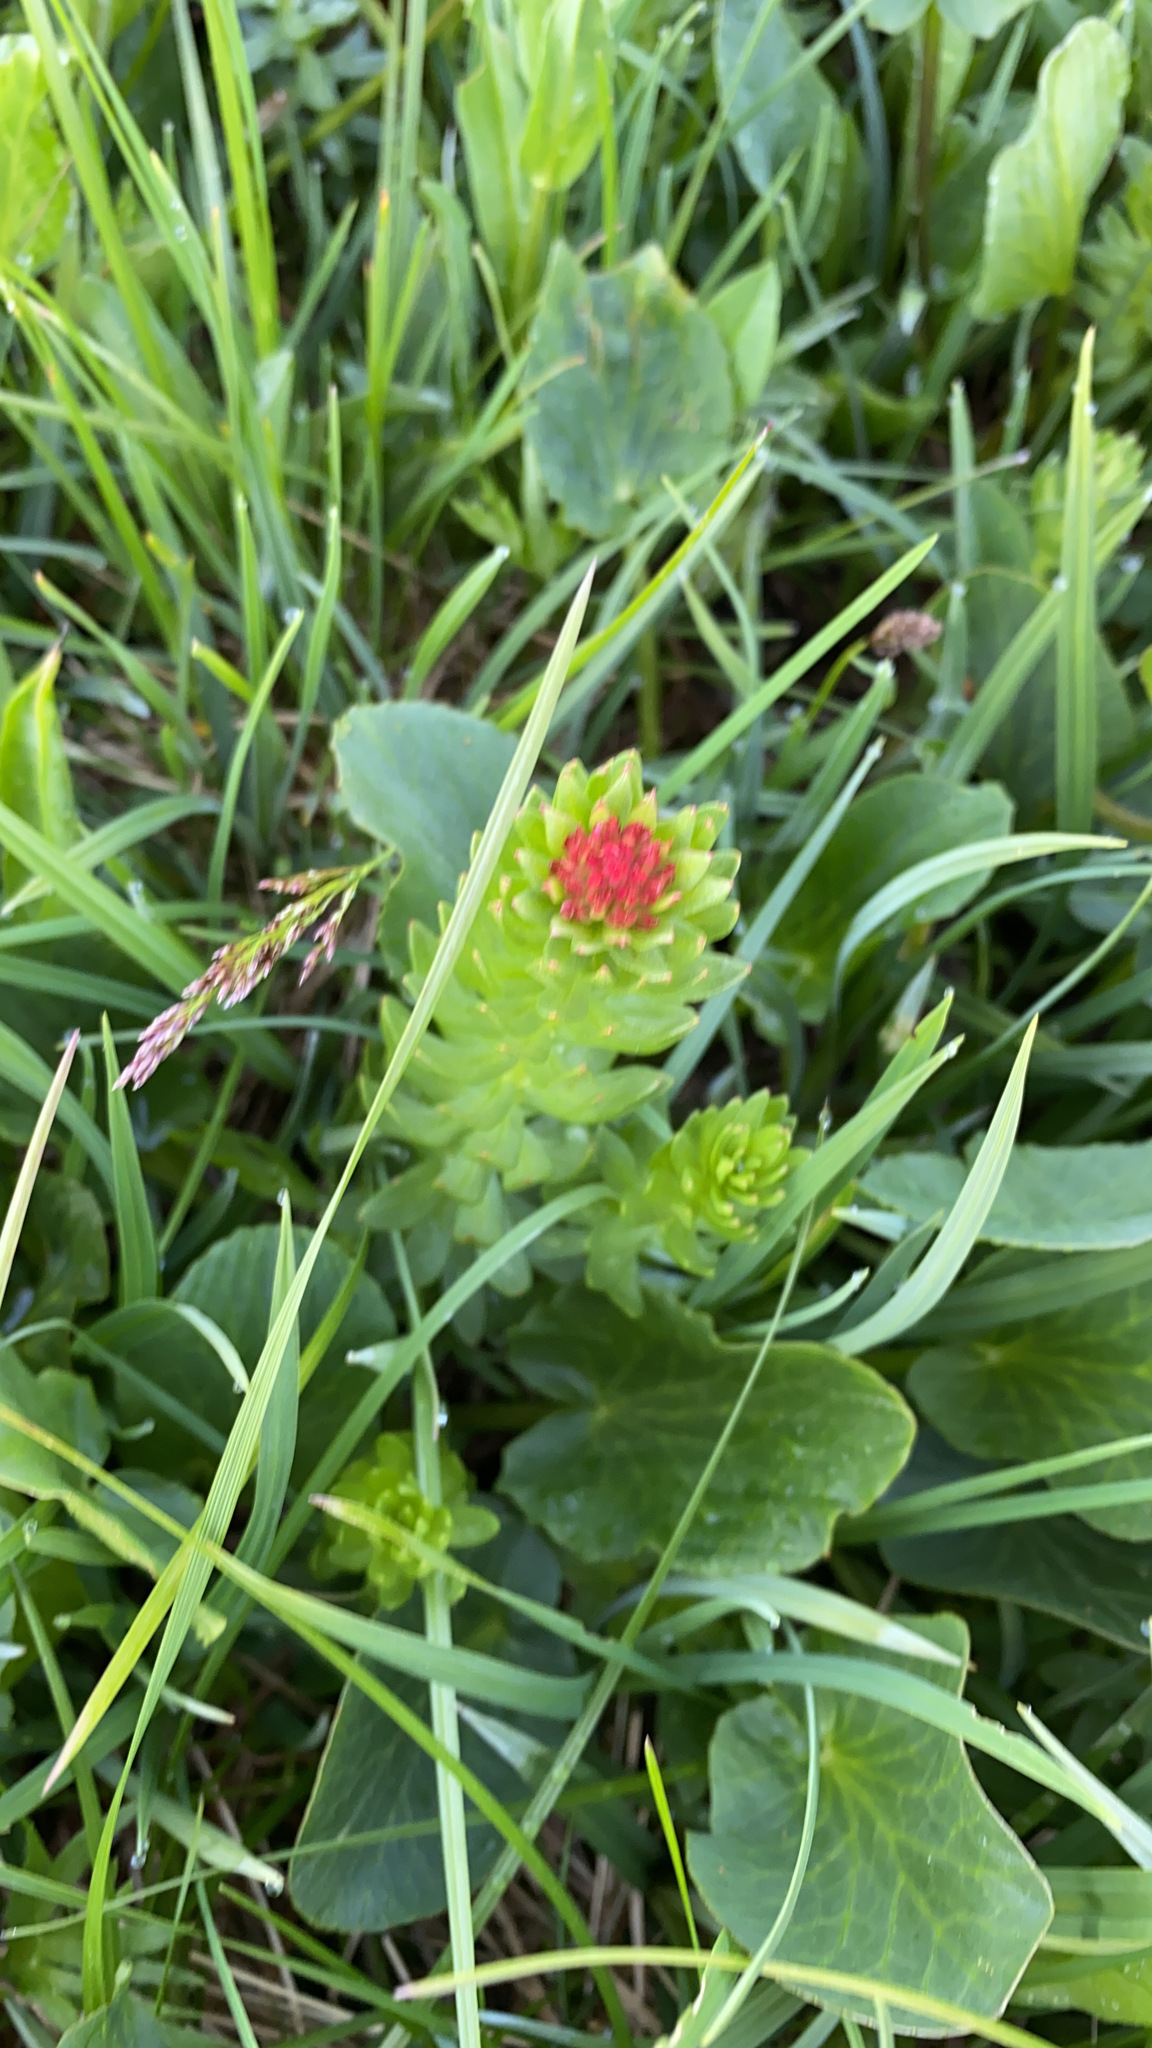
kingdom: Plantae
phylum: Tracheophyta
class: Magnoliopsida
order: Saxifragales
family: Crassulaceae
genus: Rhodiola
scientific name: Rhodiola rhodantha
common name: Red orpine
